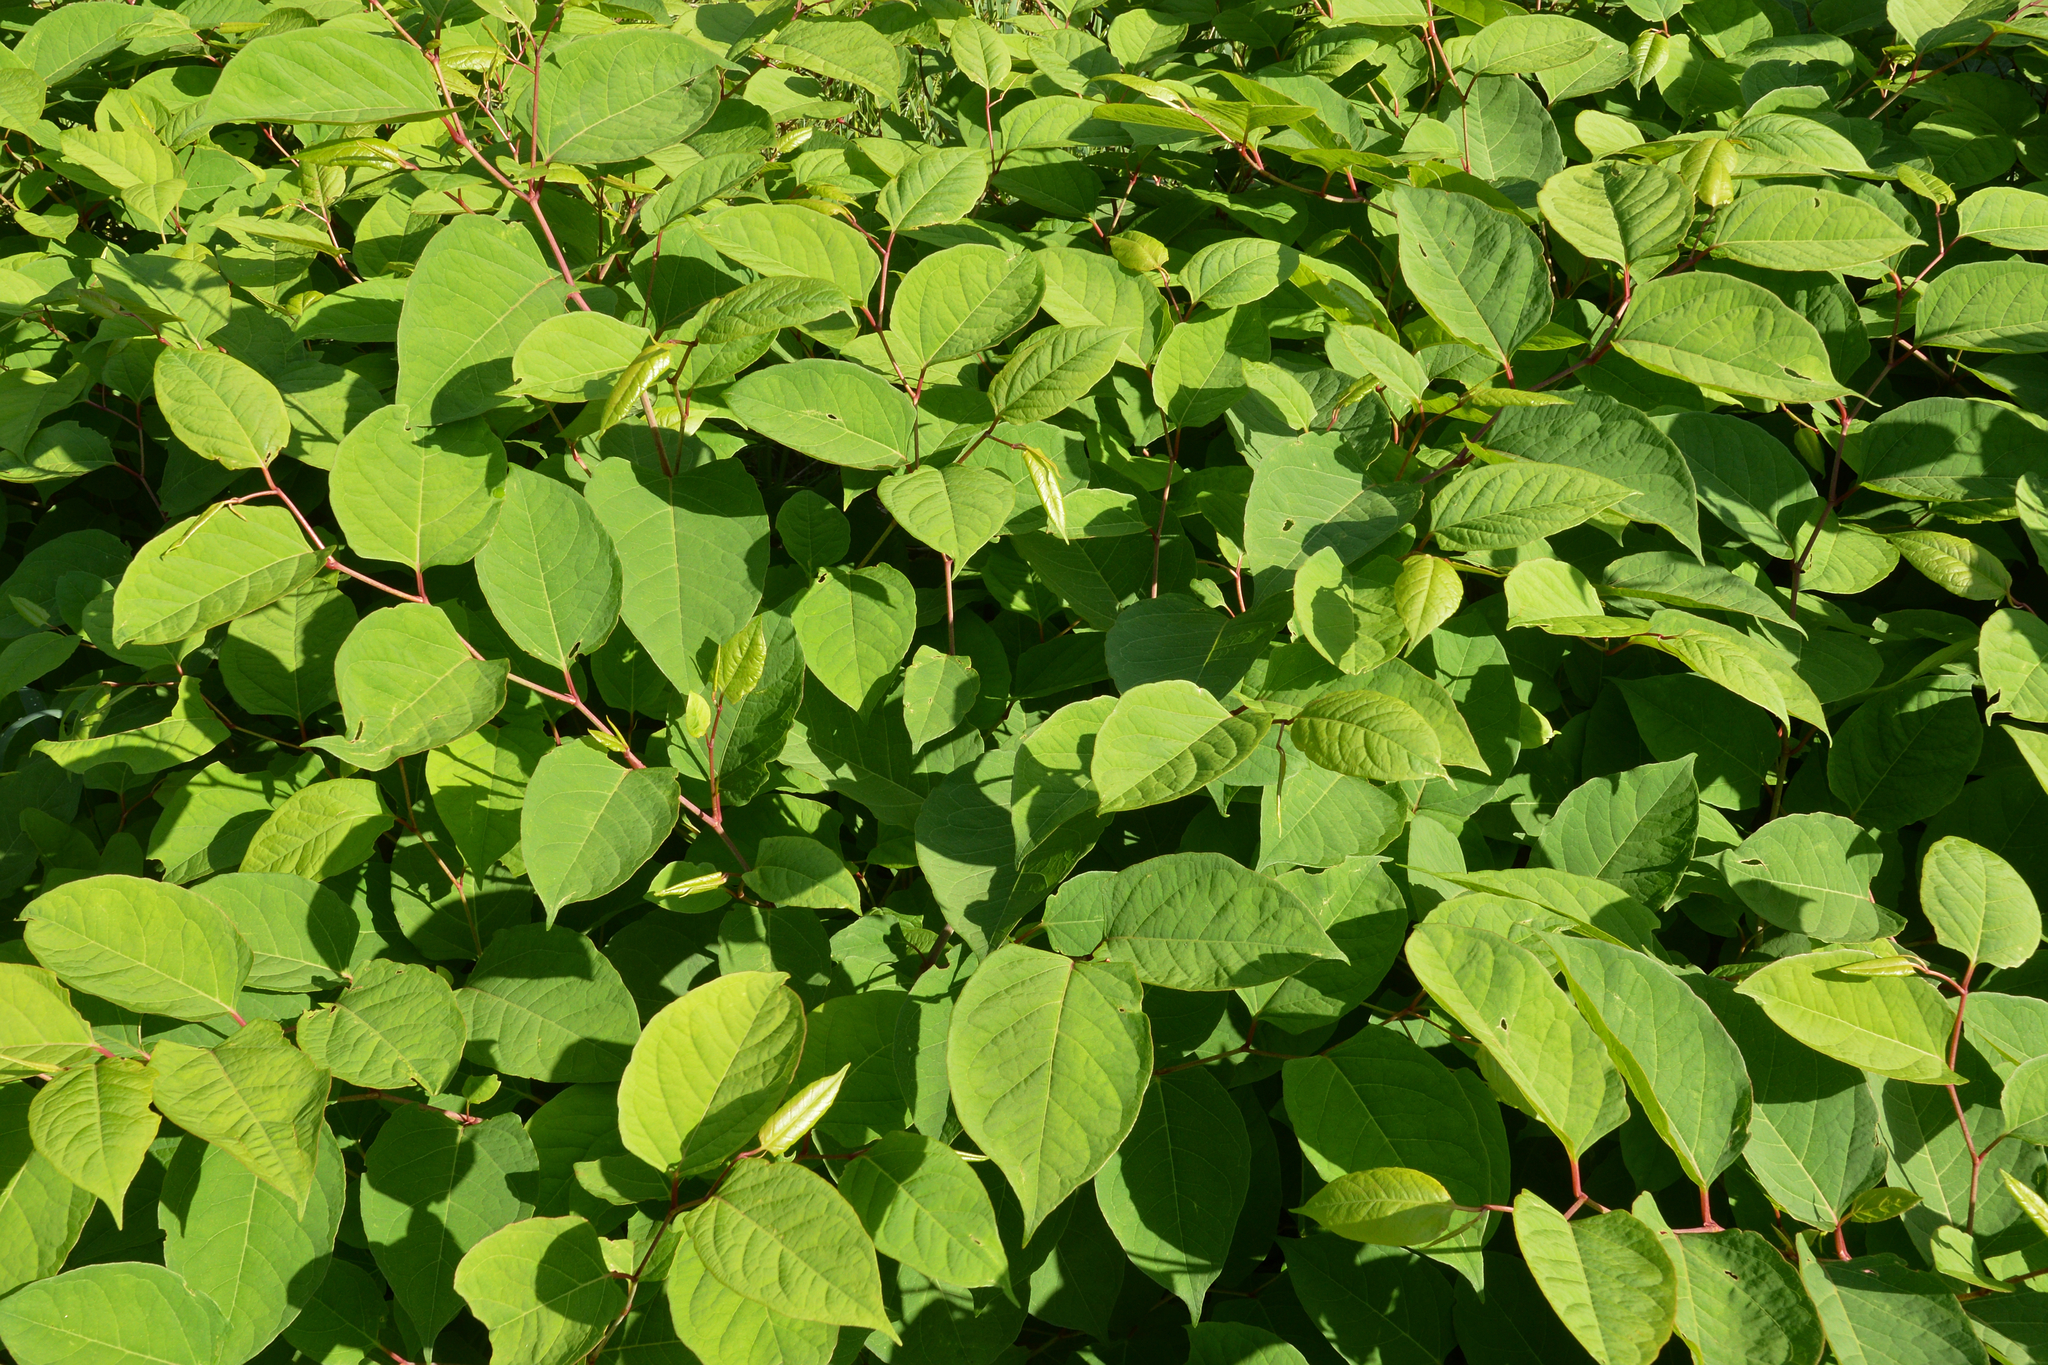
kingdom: Plantae
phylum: Tracheophyta
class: Magnoliopsida
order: Caryophyllales
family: Polygonaceae
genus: Reynoutria
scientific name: Reynoutria japonica
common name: Japanese knotweed
